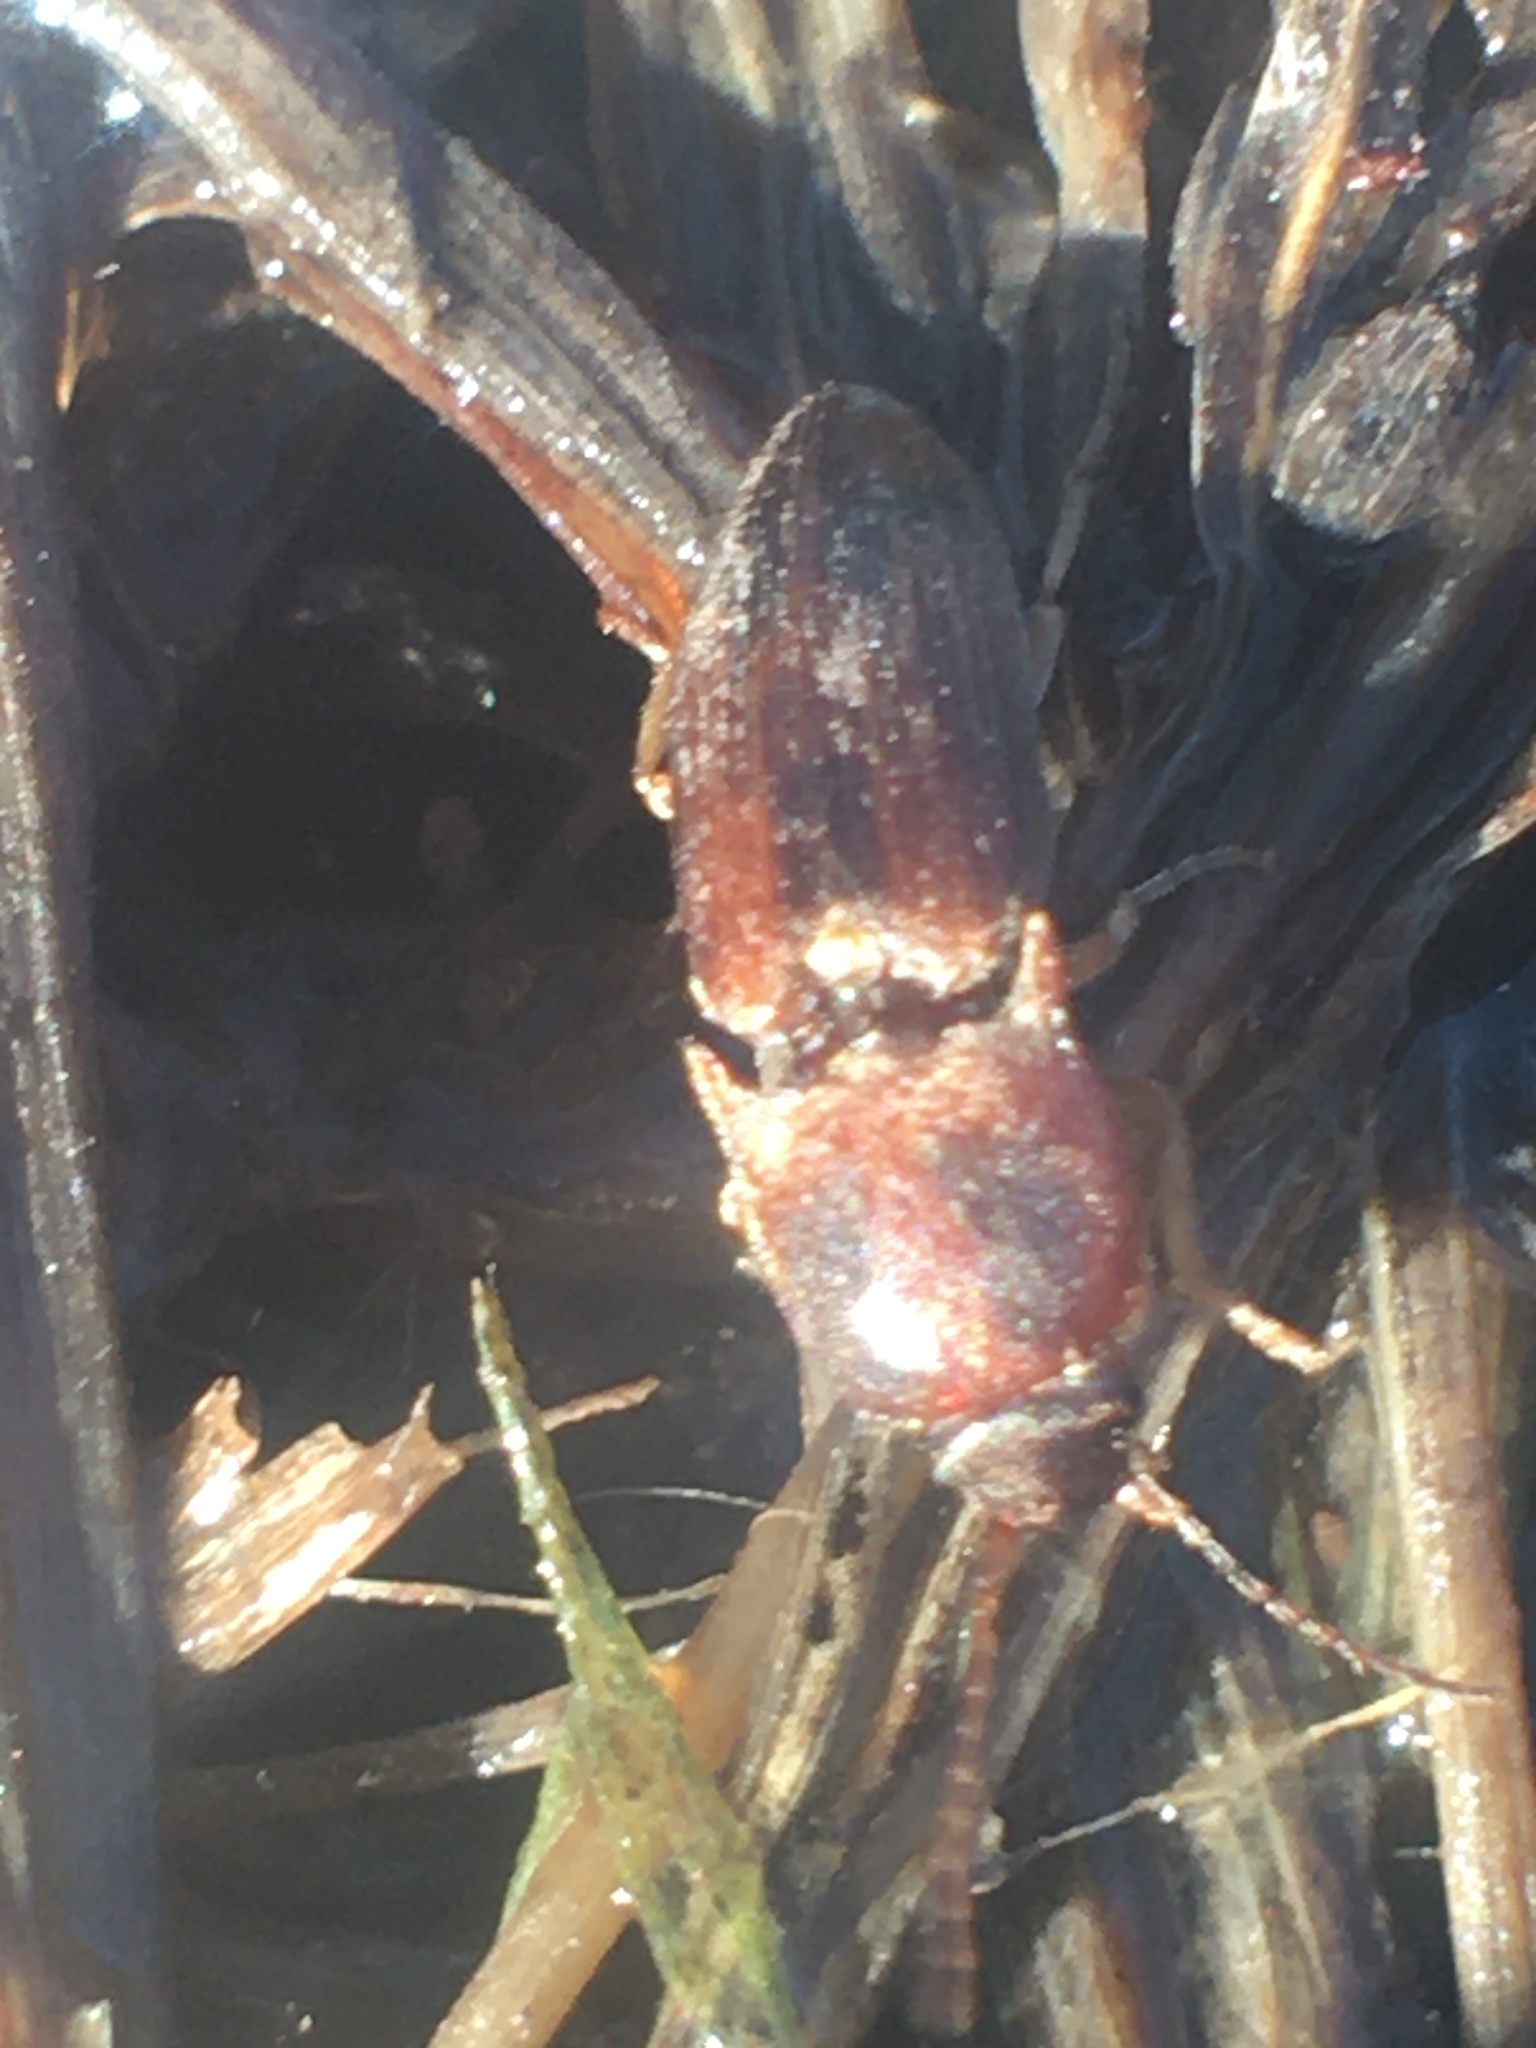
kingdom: Animalia
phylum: Arthropoda
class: Insecta
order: Coleoptera
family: Elateridae
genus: Monocrepidius
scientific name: Monocrepidius
